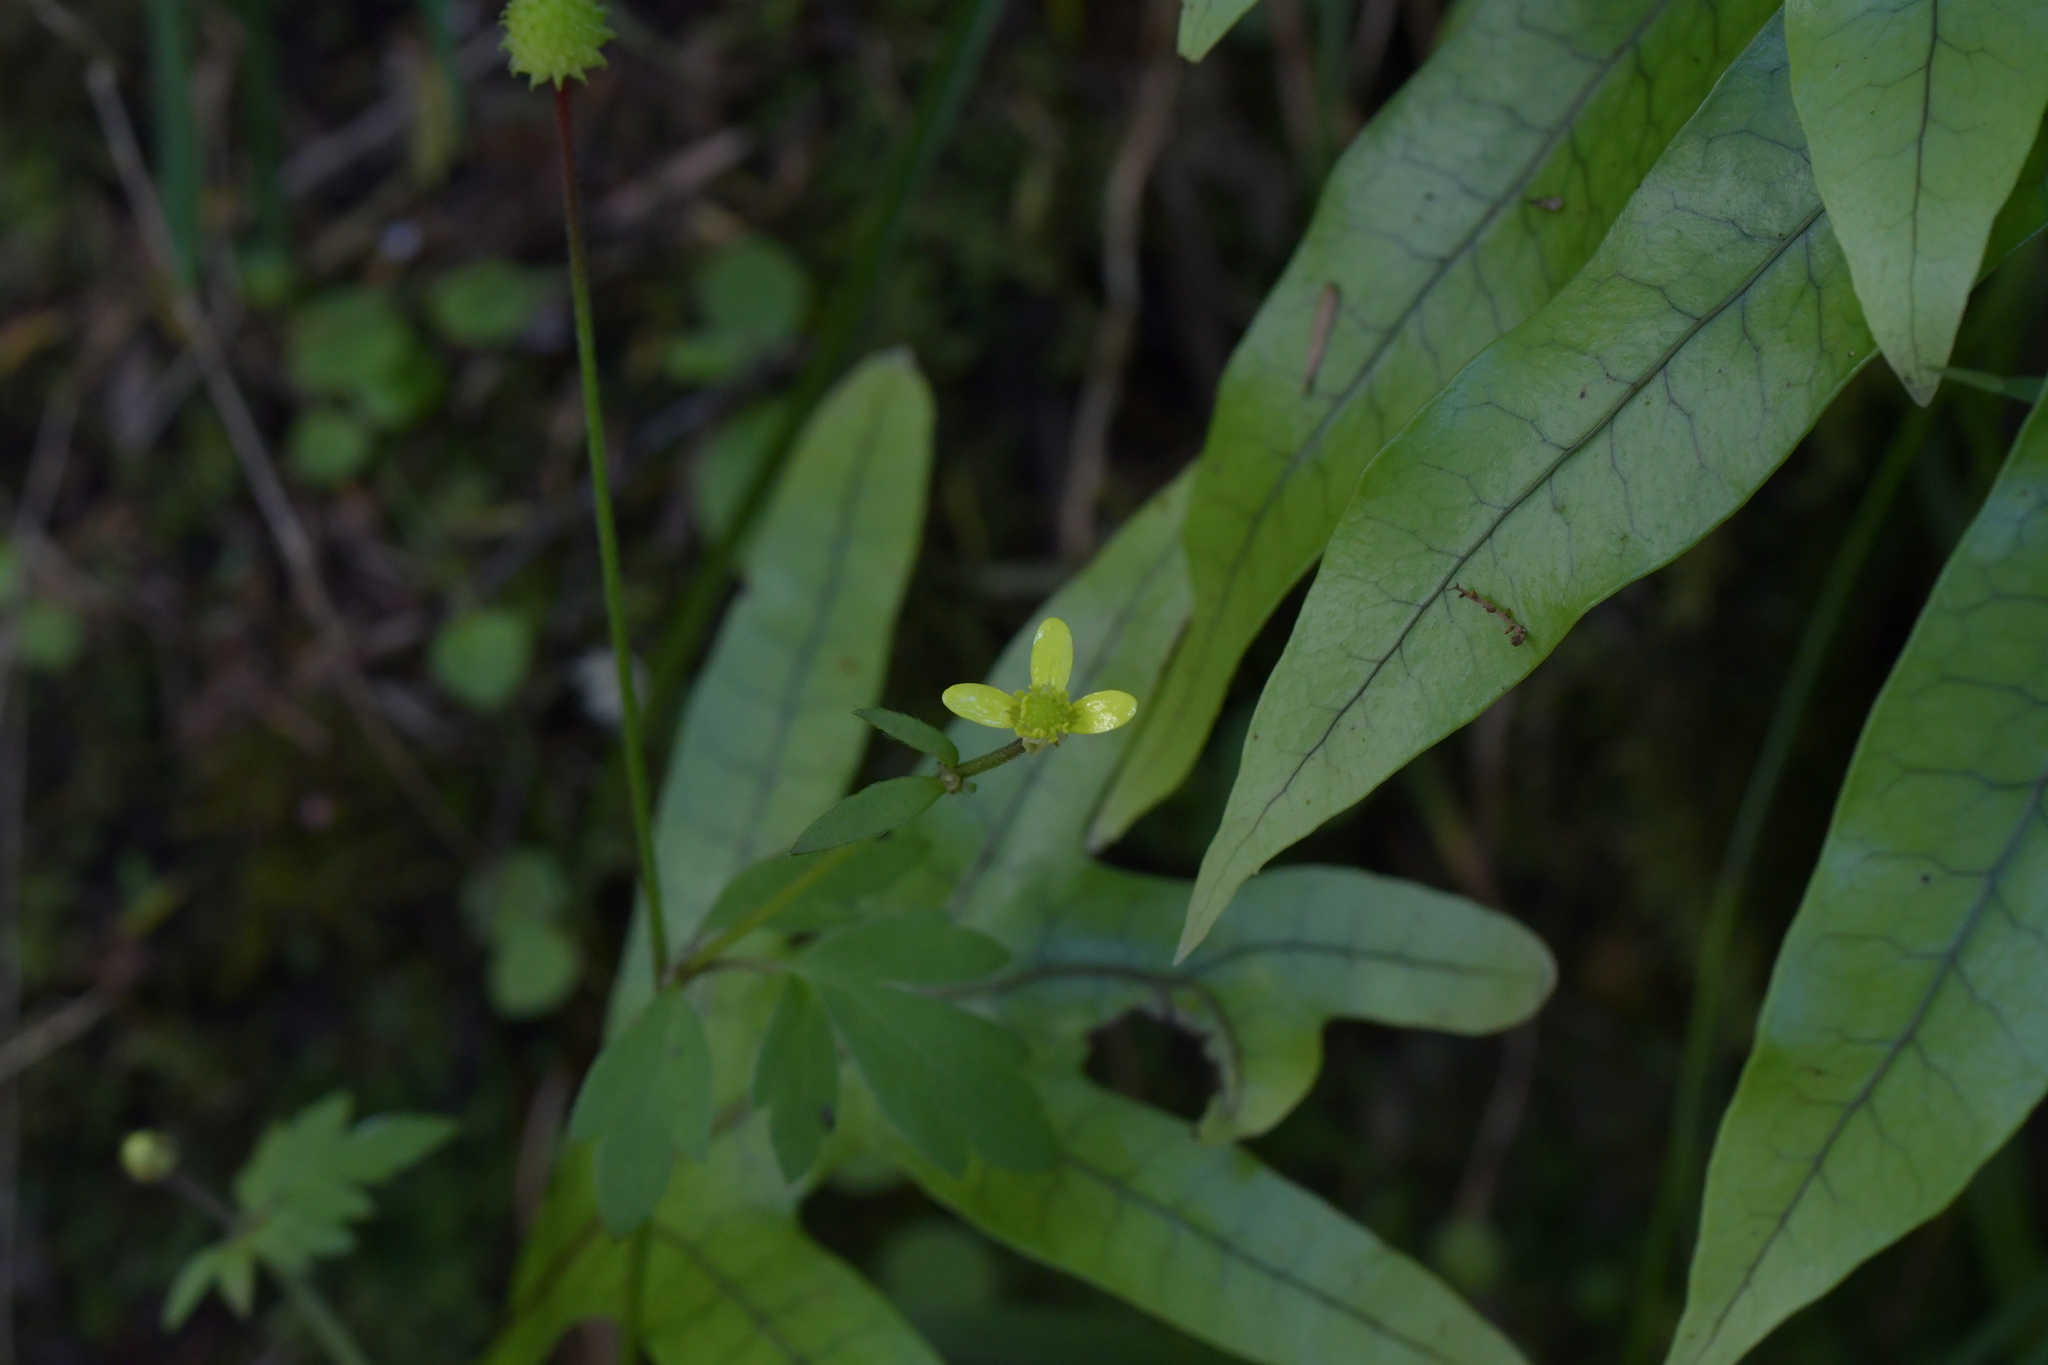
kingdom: Plantae
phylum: Tracheophyta
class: Magnoliopsida
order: Ranunculales
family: Ranunculaceae
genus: Ranunculus
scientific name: Ranunculus reflexus
